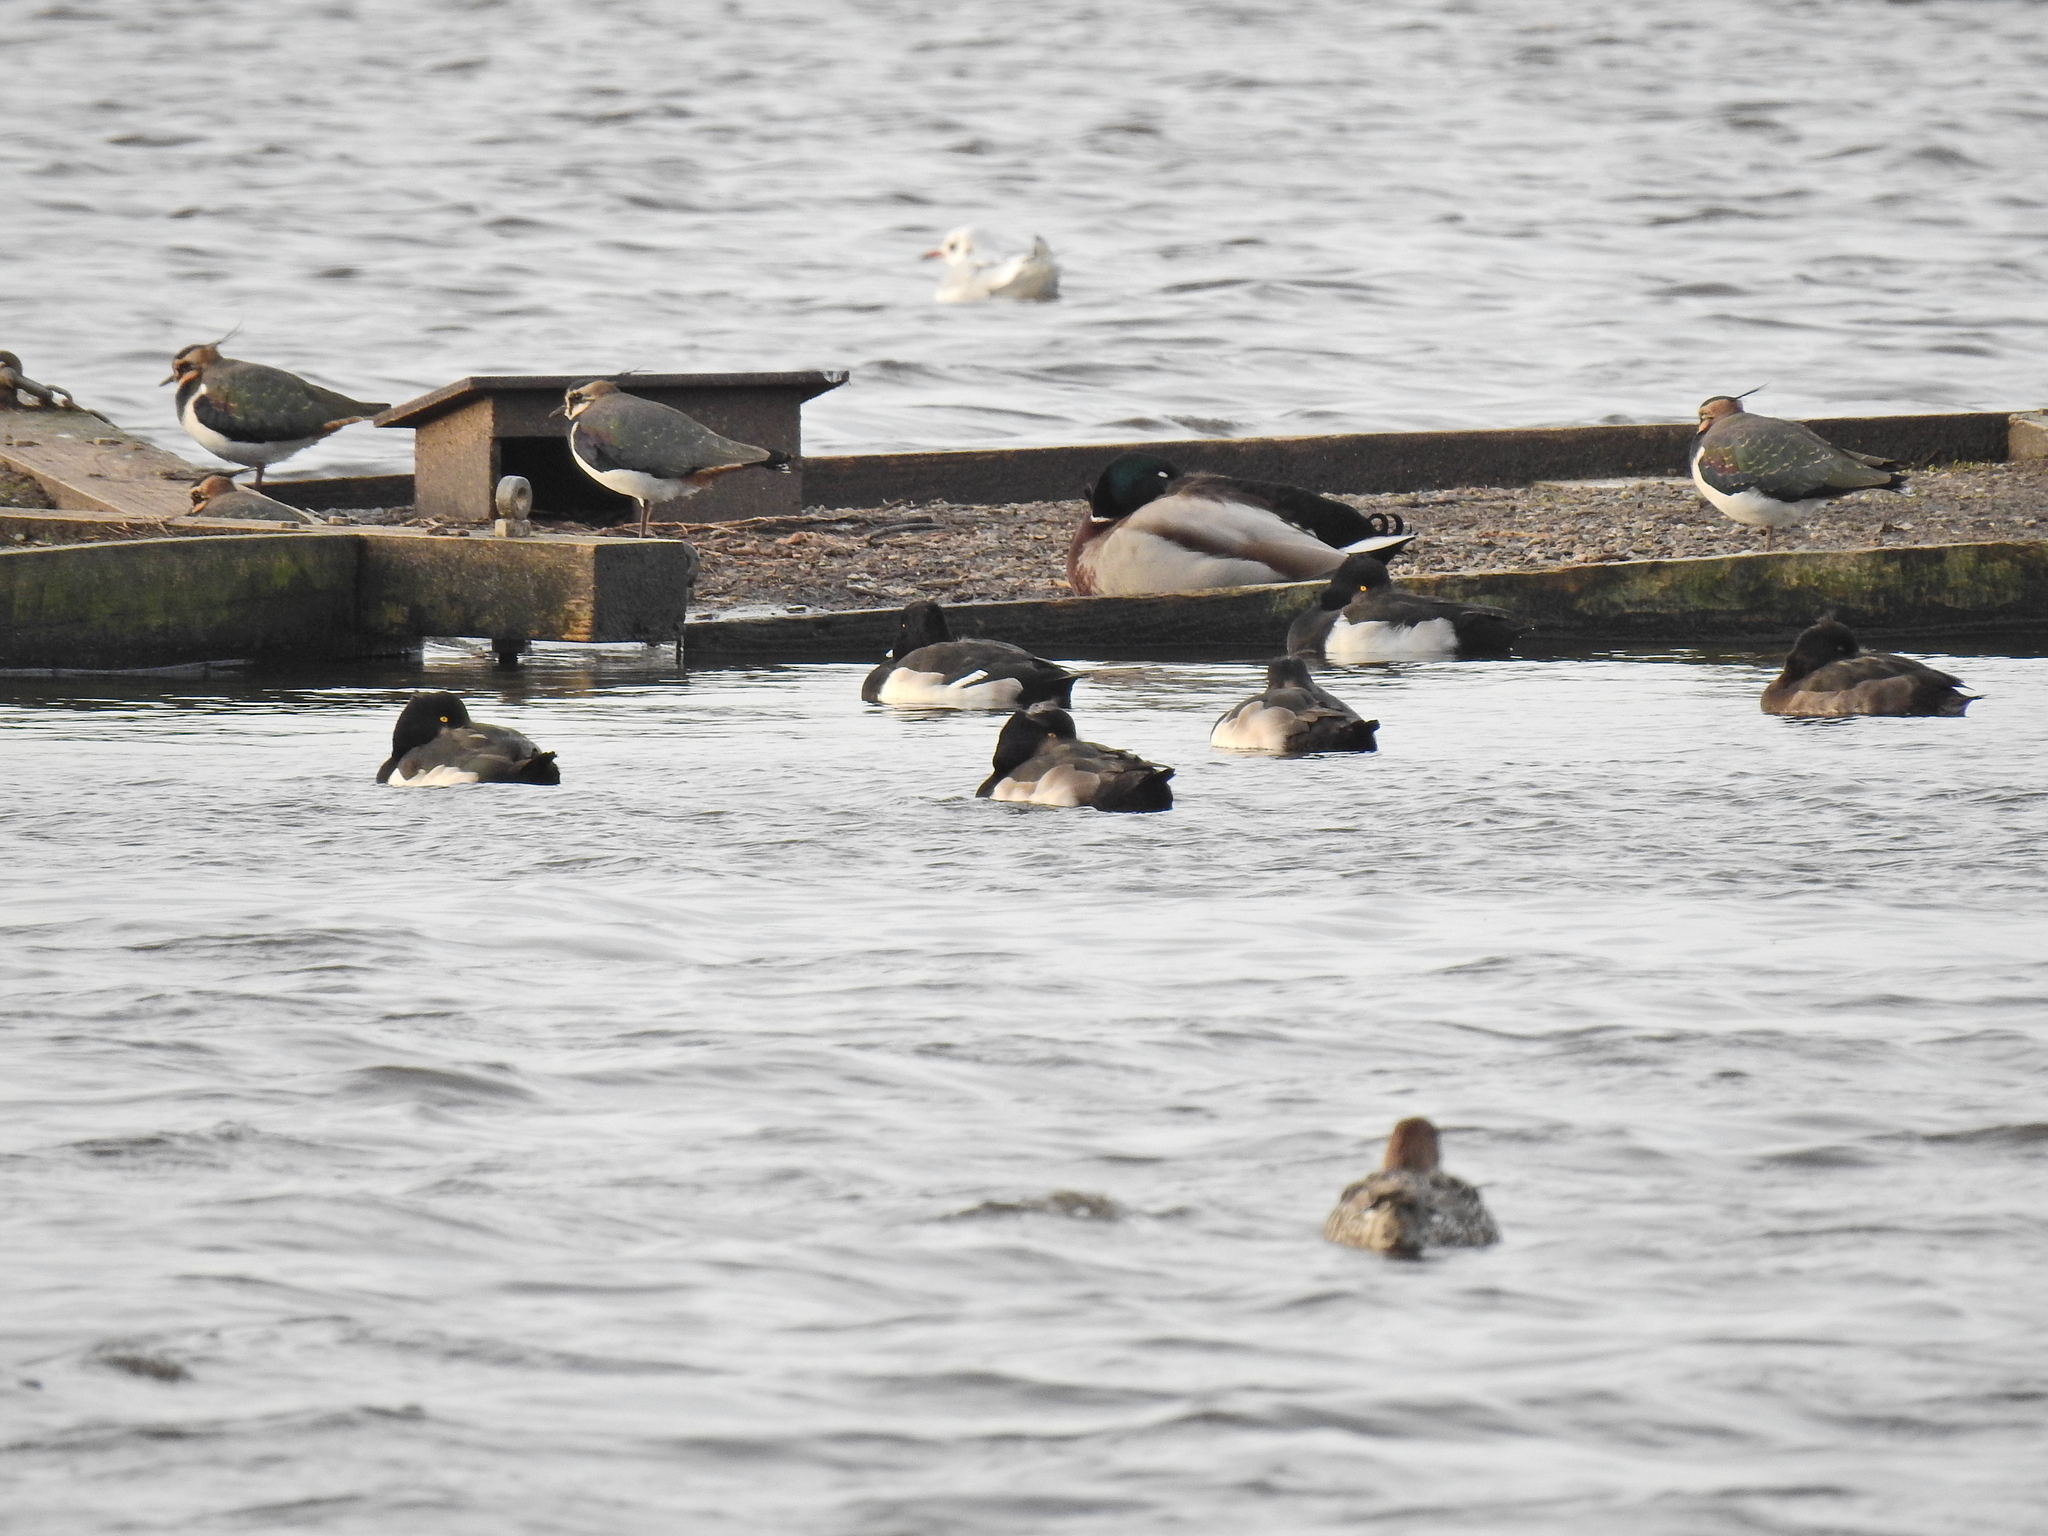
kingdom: Animalia
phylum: Chordata
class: Aves
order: Anseriformes
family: Anatidae
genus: Aythya
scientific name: Aythya fuligula
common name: Tufted duck
